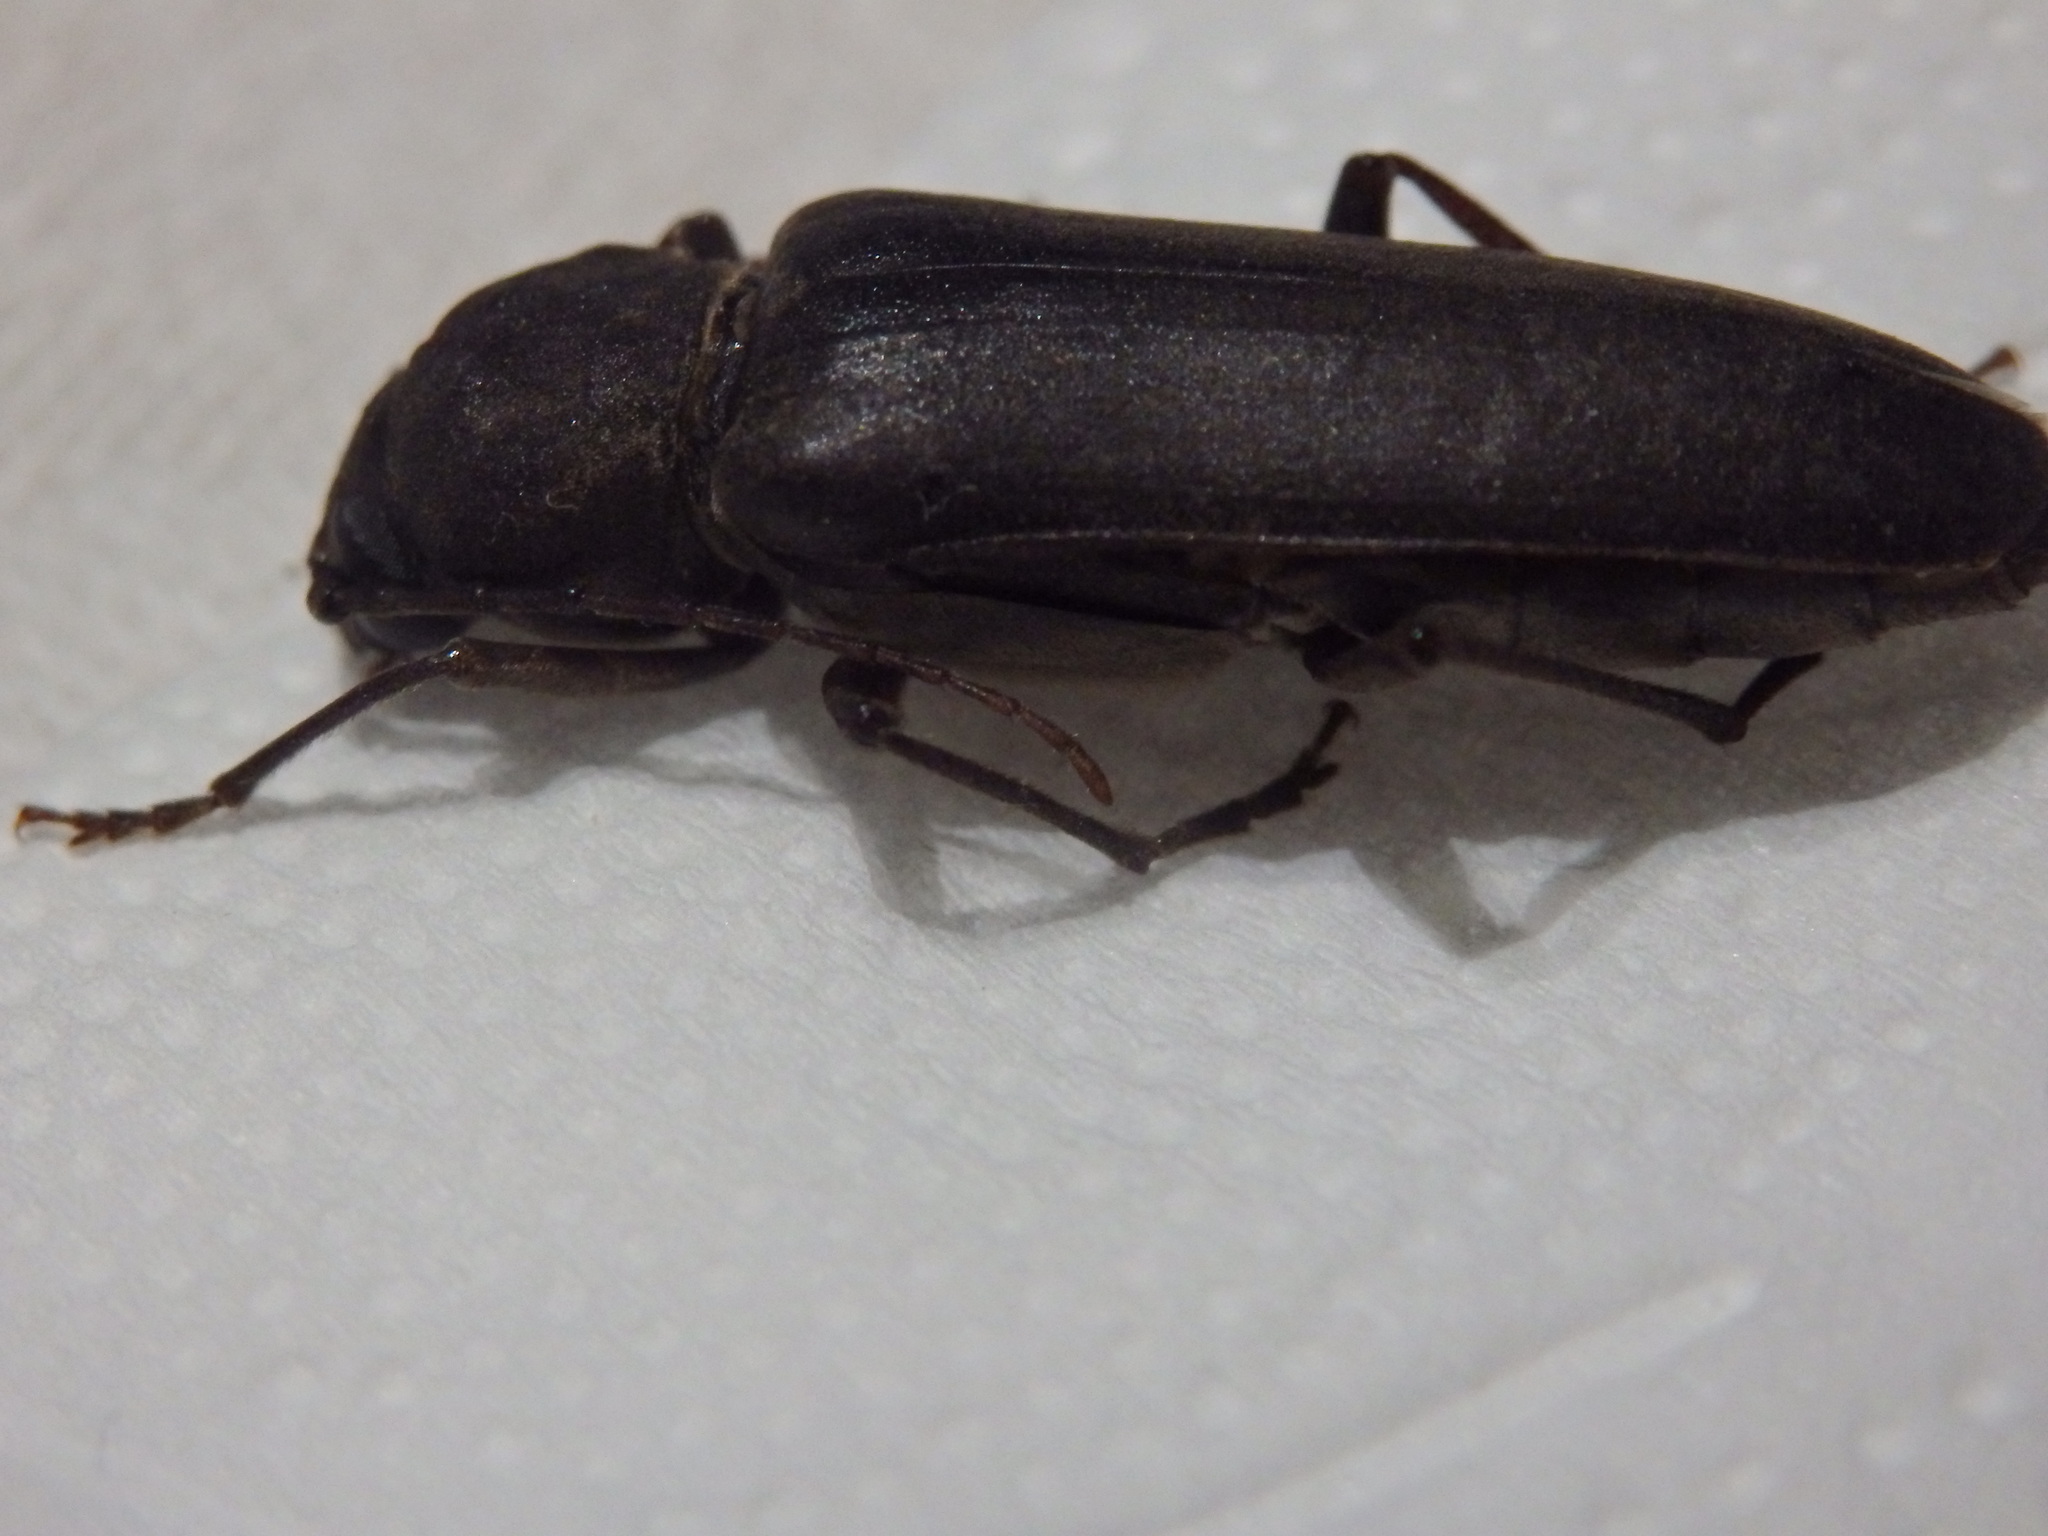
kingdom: Animalia
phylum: Arthropoda
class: Insecta
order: Coleoptera
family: Cerambycidae
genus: Arhopalus
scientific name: Arhopalus ferus
